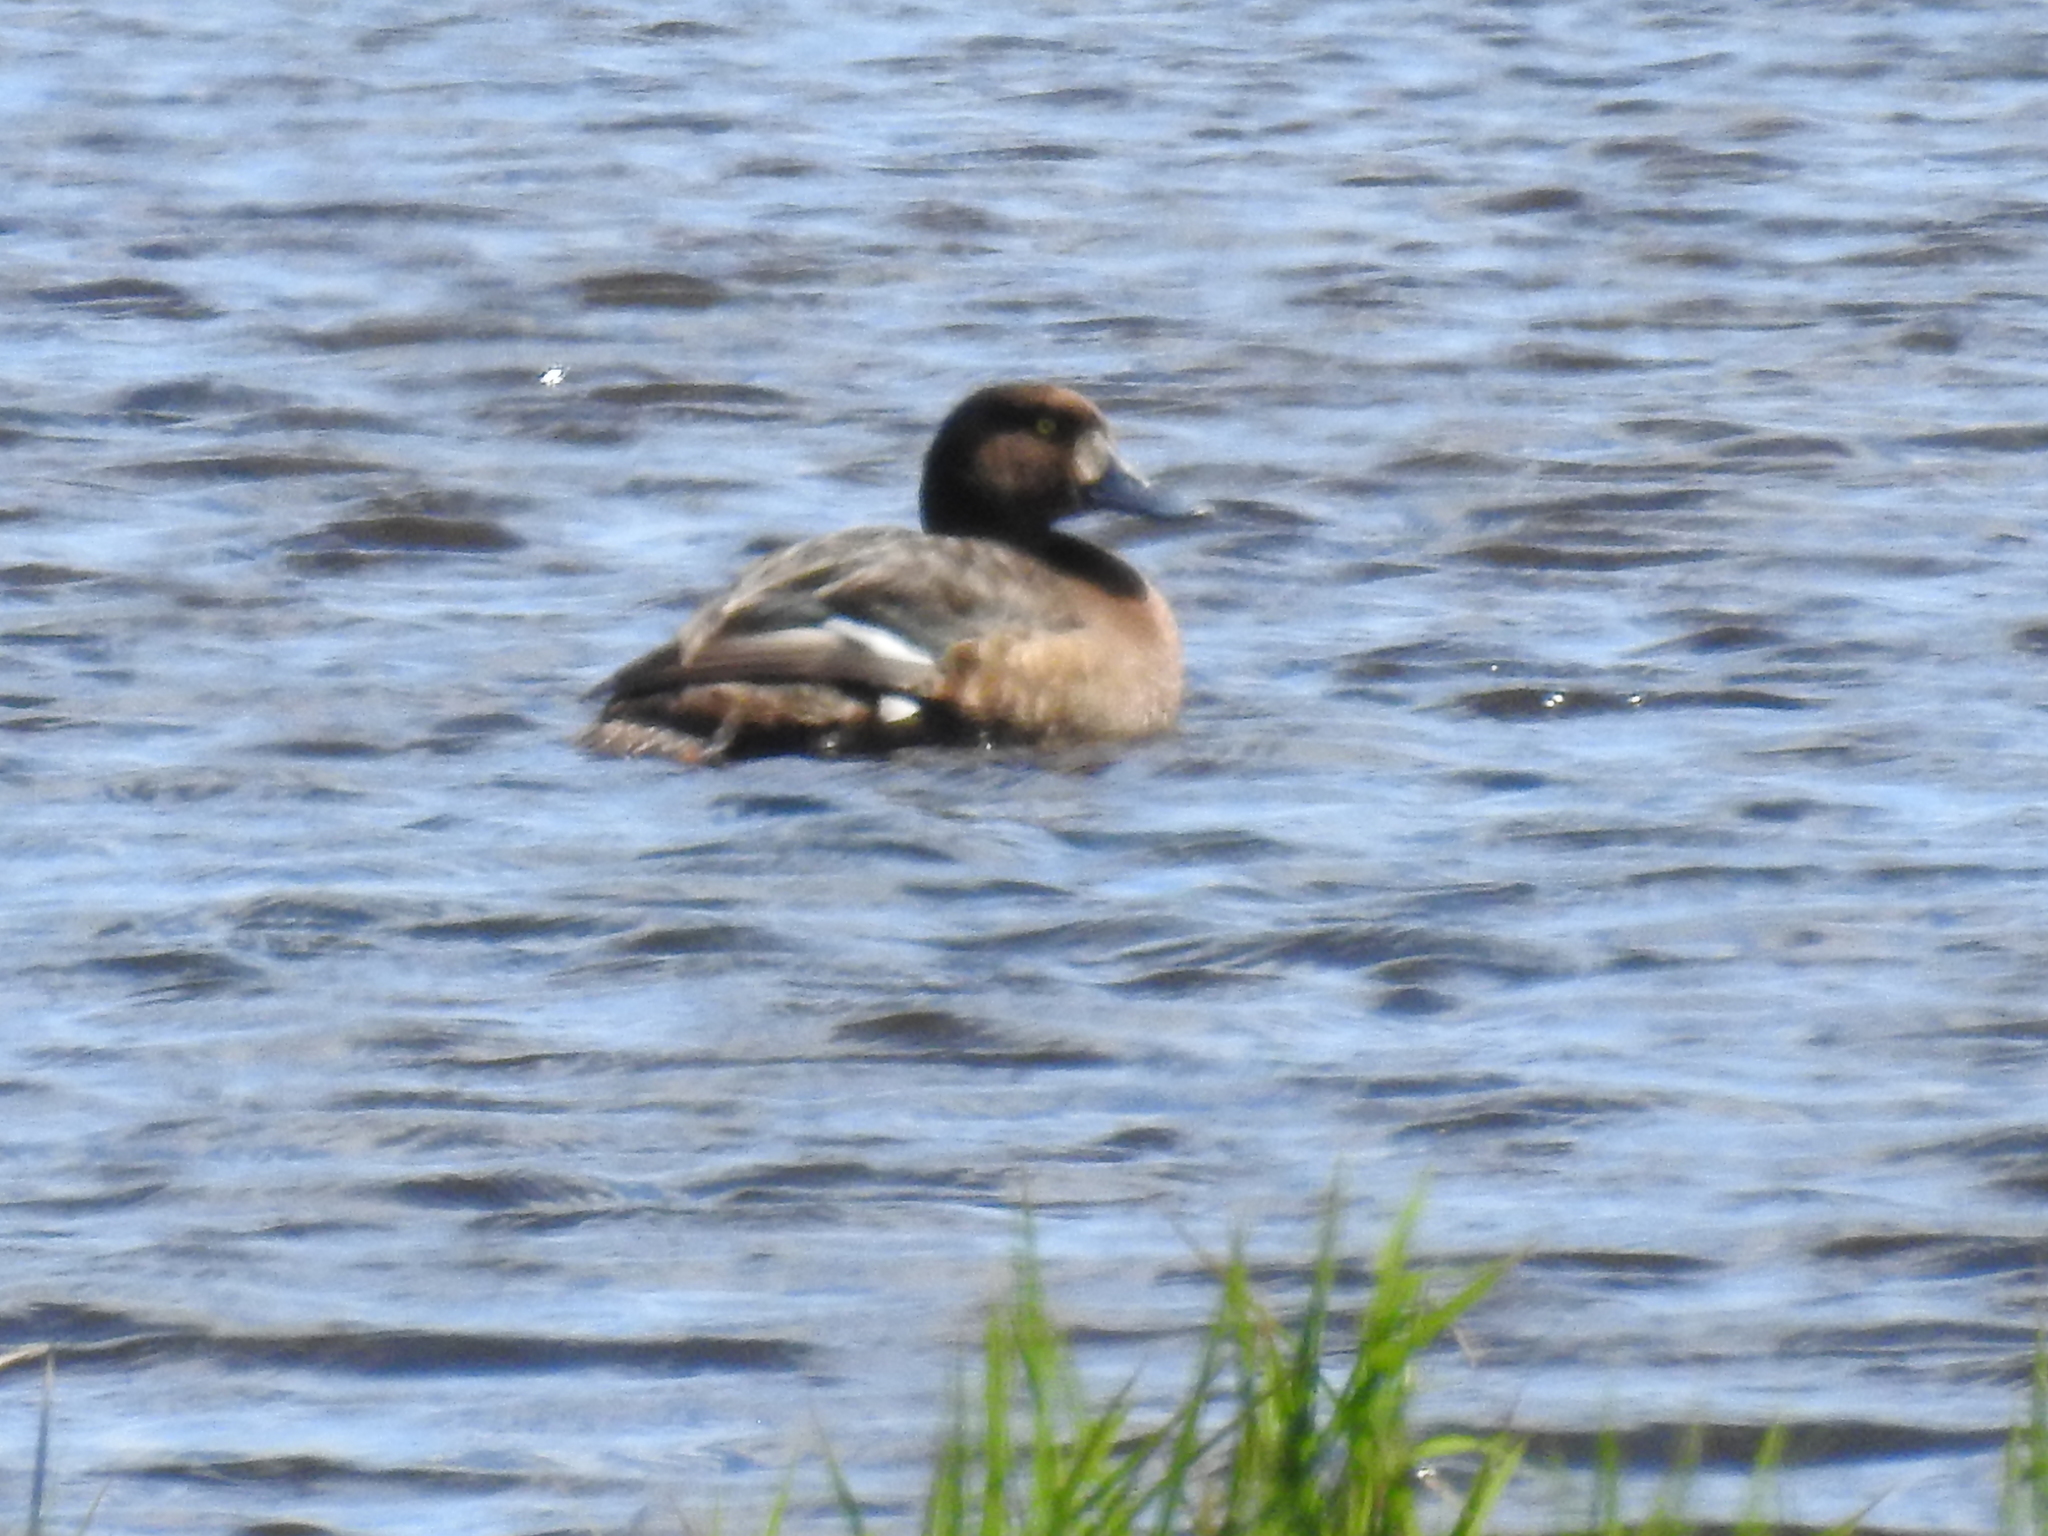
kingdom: Animalia
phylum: Chordata
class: Aves
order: Anseriformes
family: Anatidae
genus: Aythya
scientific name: Aythya marila
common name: Greater scaup
